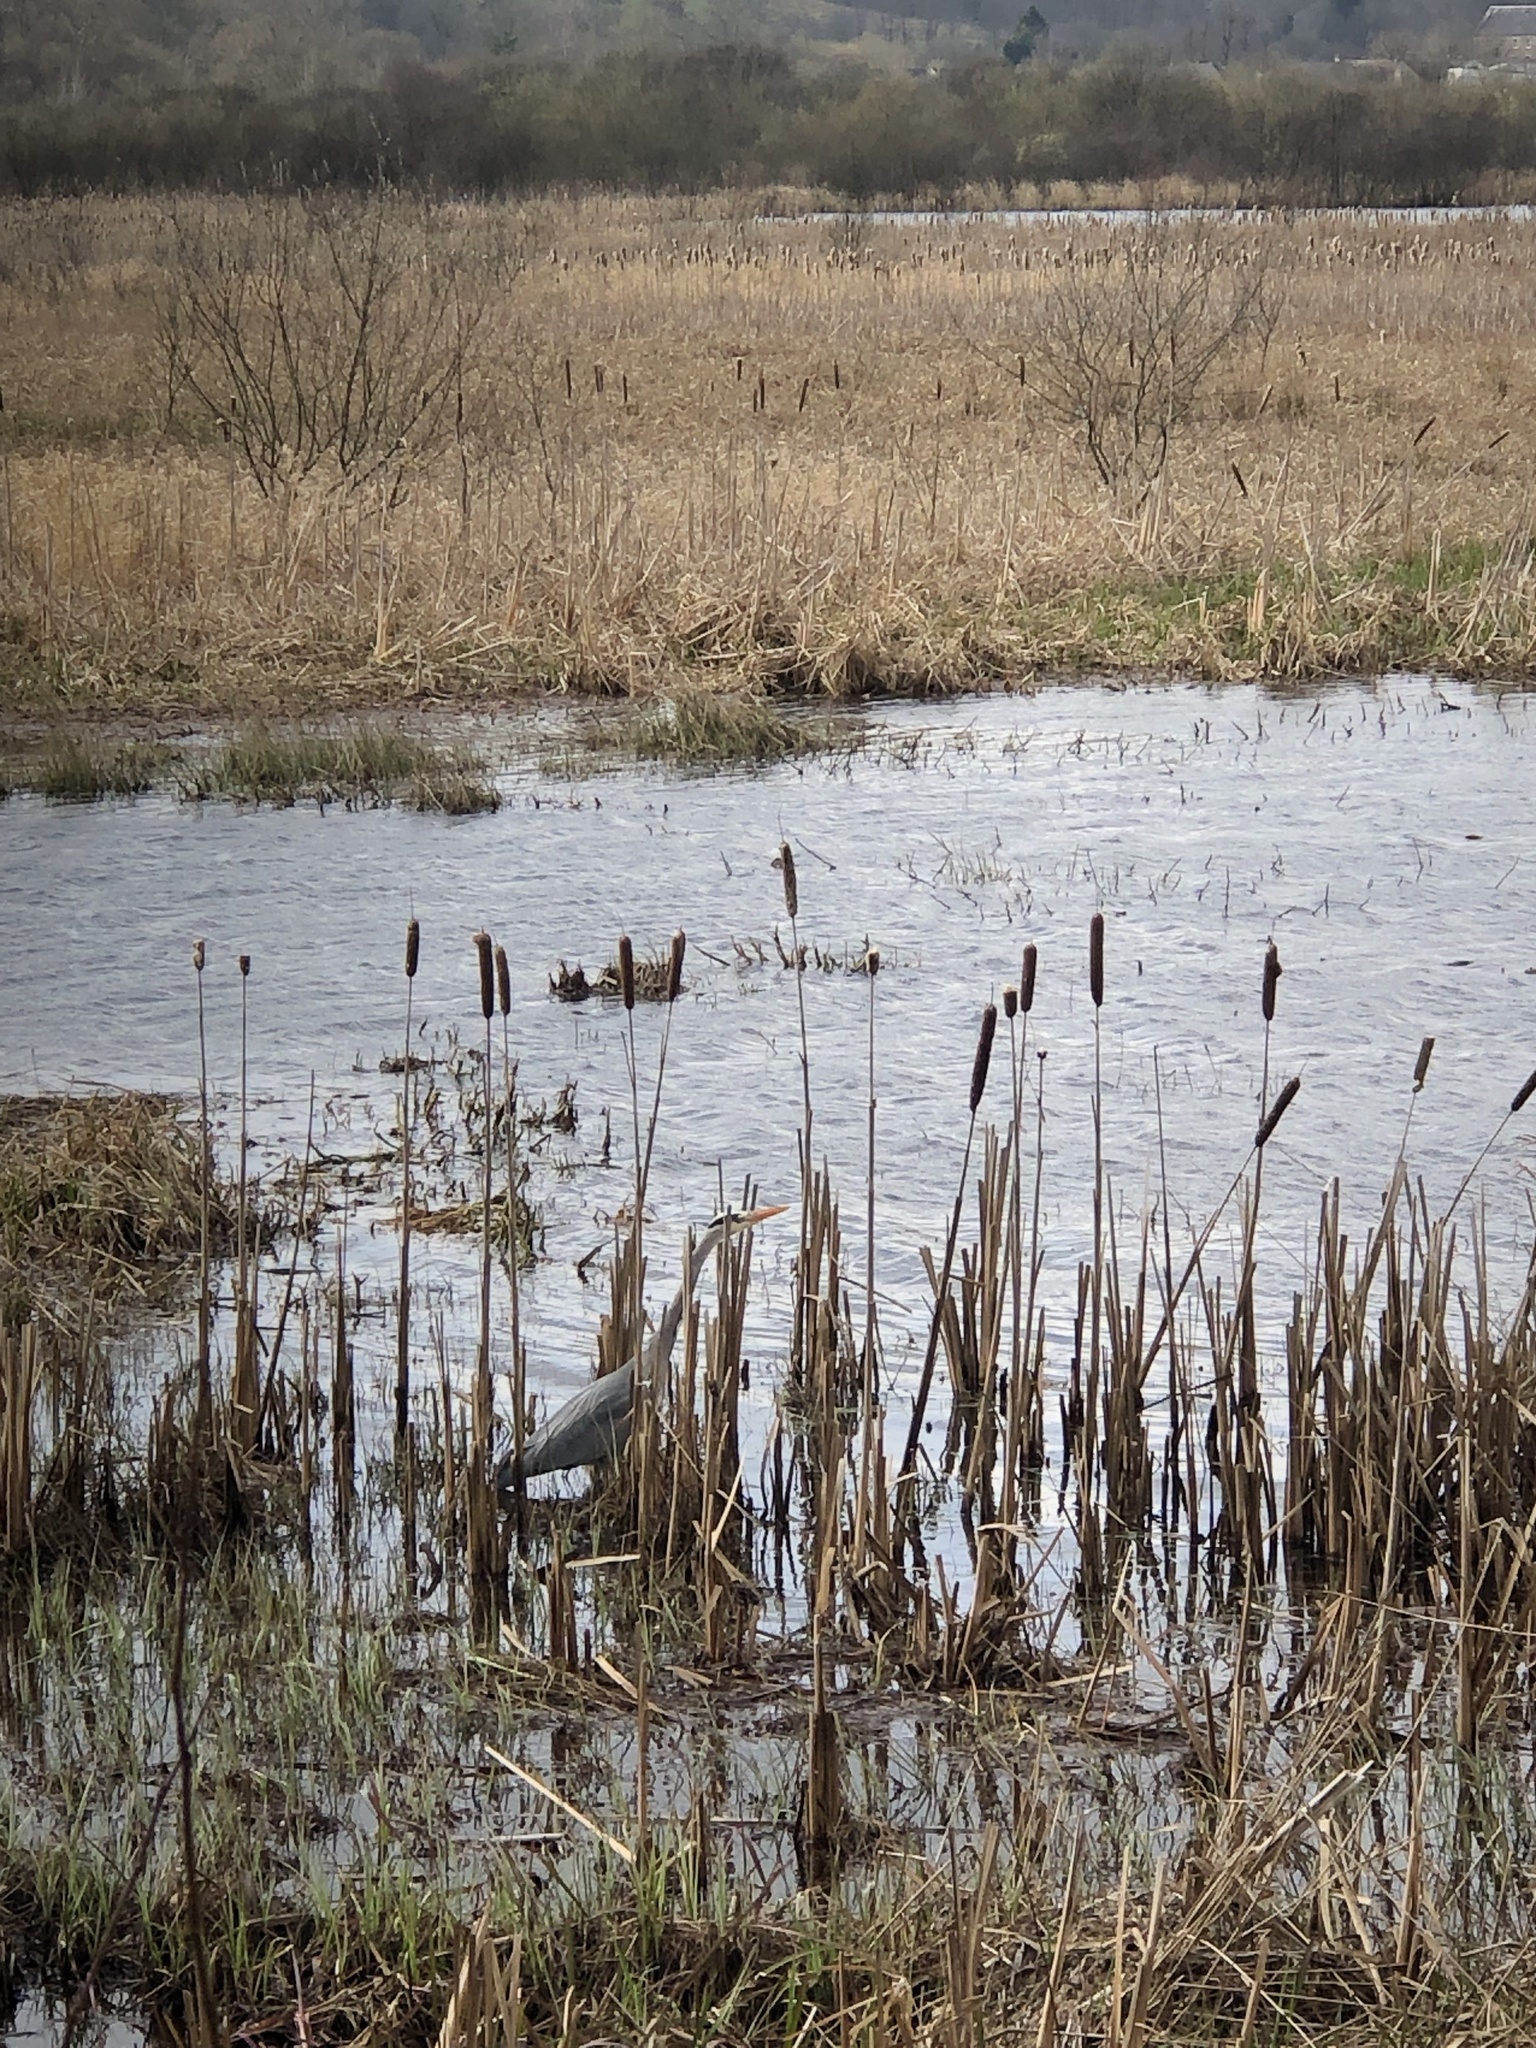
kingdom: Animalia
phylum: Chordata
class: Aves
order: Pelecaniformes
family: Ardeidae
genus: Ardea
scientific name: Ardea cinerea
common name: Grey heron
